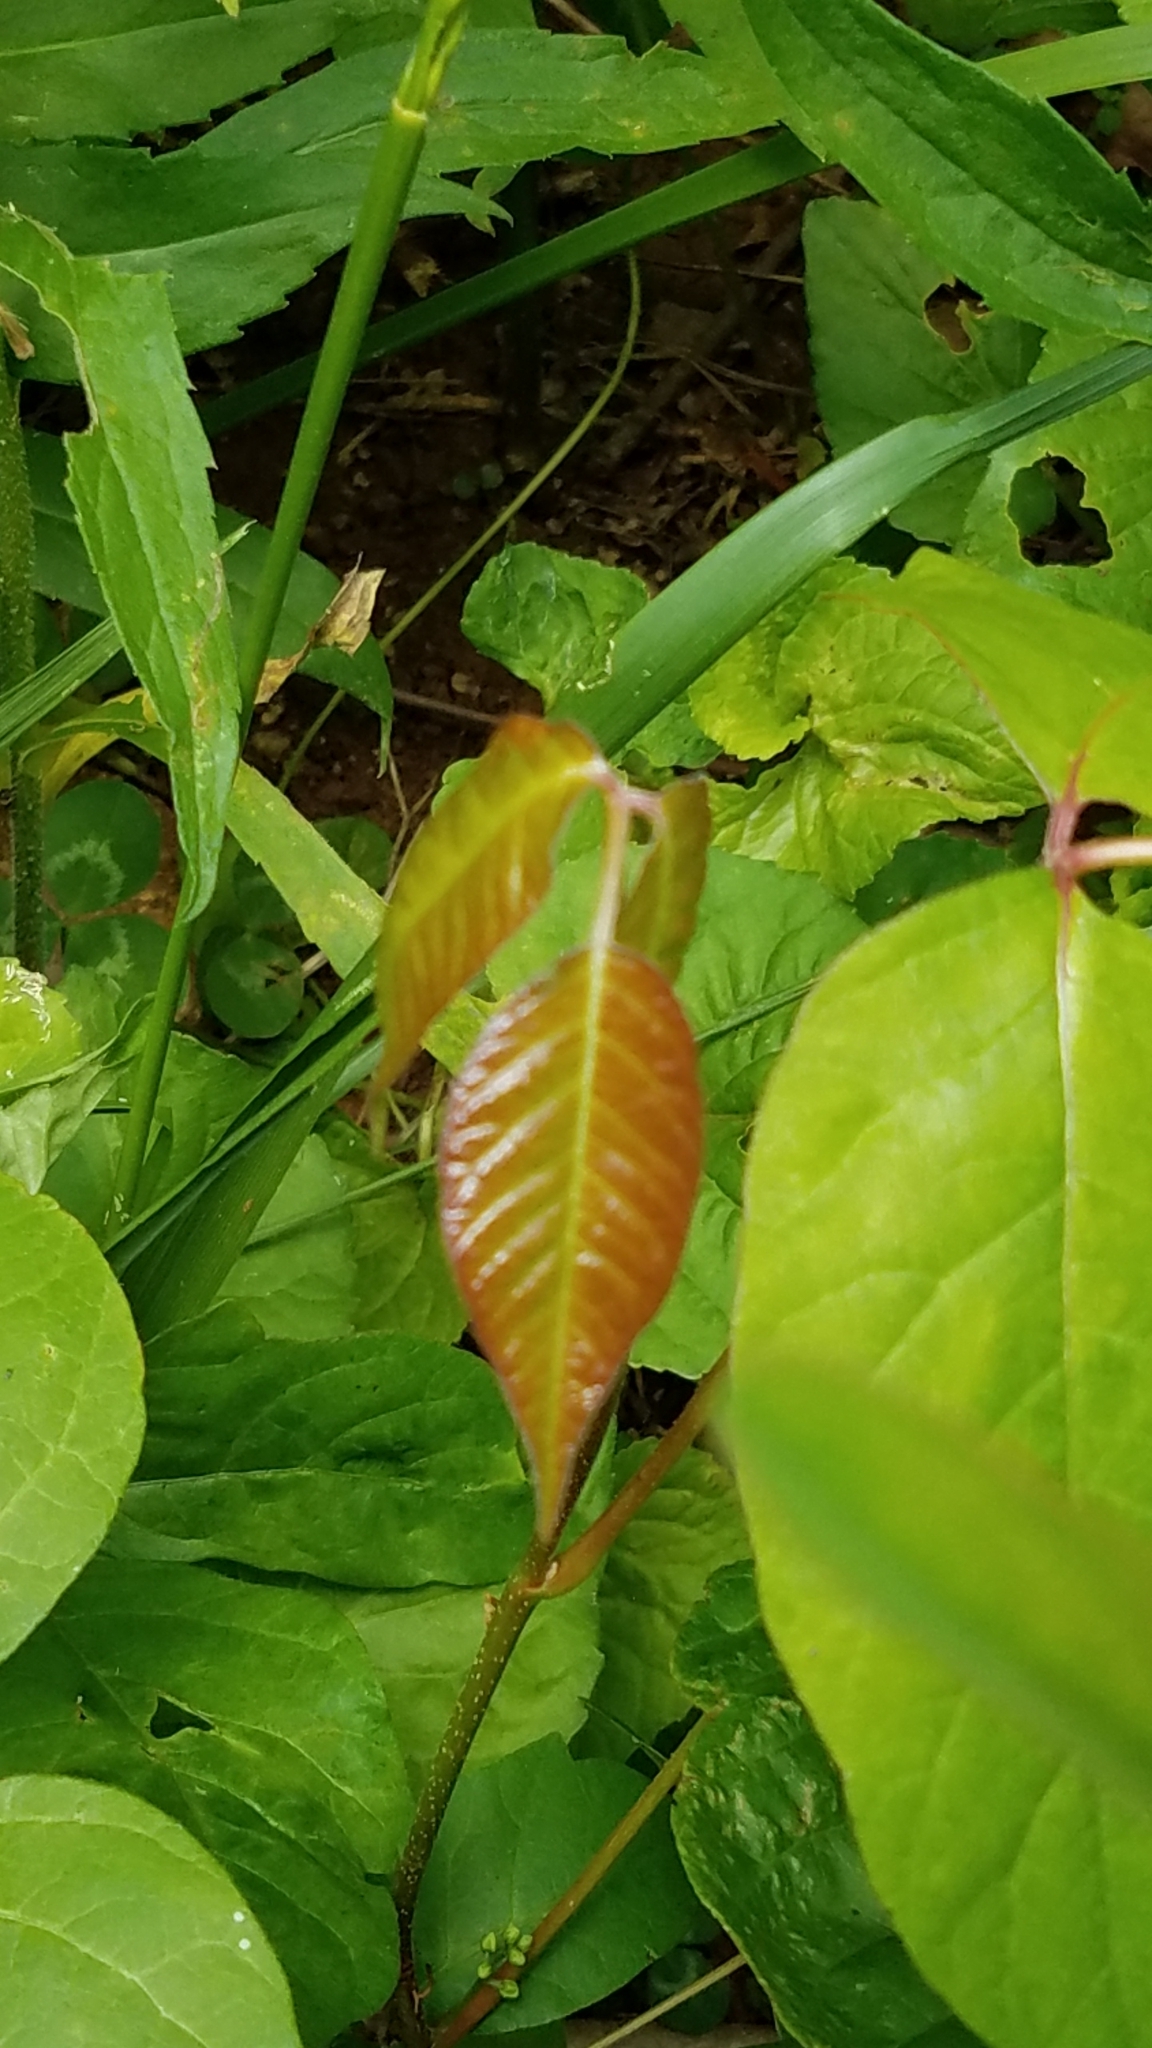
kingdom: Plantae
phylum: Tracheophyta
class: Magnoliopsida
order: Sapindales
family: Anacardiaceae
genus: Toxicodendron
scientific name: Toxicodendron radicans
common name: Poison ivy
